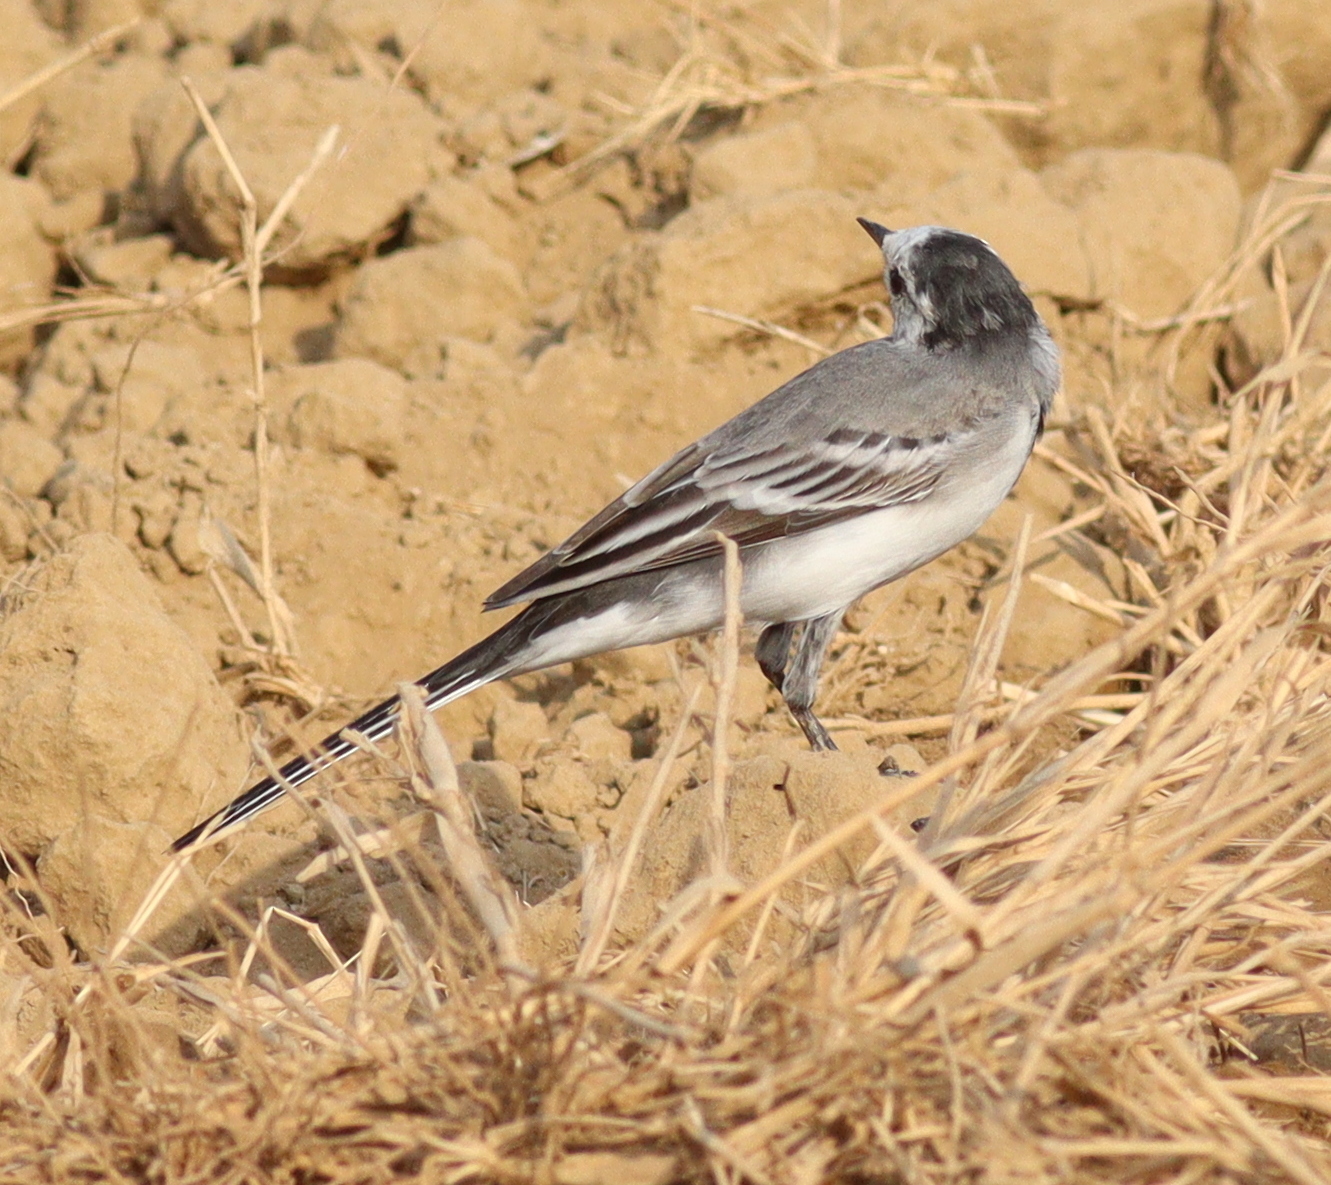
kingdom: Animalia
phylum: Chordata
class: Aves
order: Passeriformes
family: Motacillidae
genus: Motacilla
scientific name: Motacilla alba
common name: White wagtail
